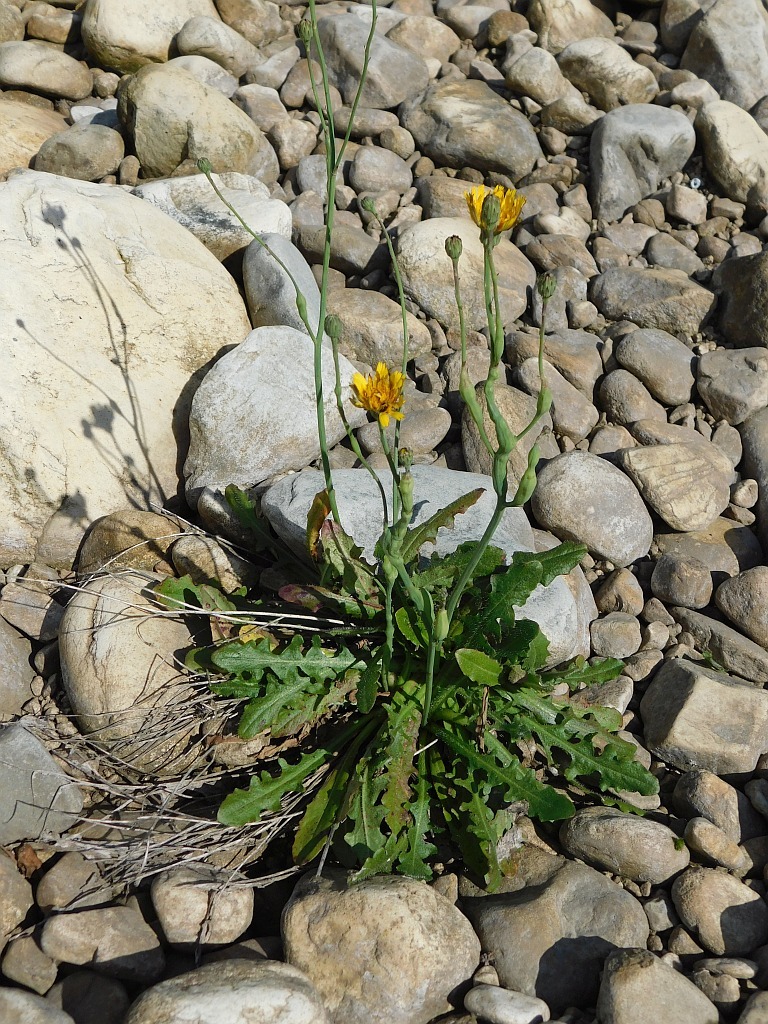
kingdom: Plantae
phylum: Tracheophyta
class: Magnoliopsida
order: Asterales
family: Asteraceae
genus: Hypochaeris
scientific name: Hypochaeris radicata
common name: Flatweed
